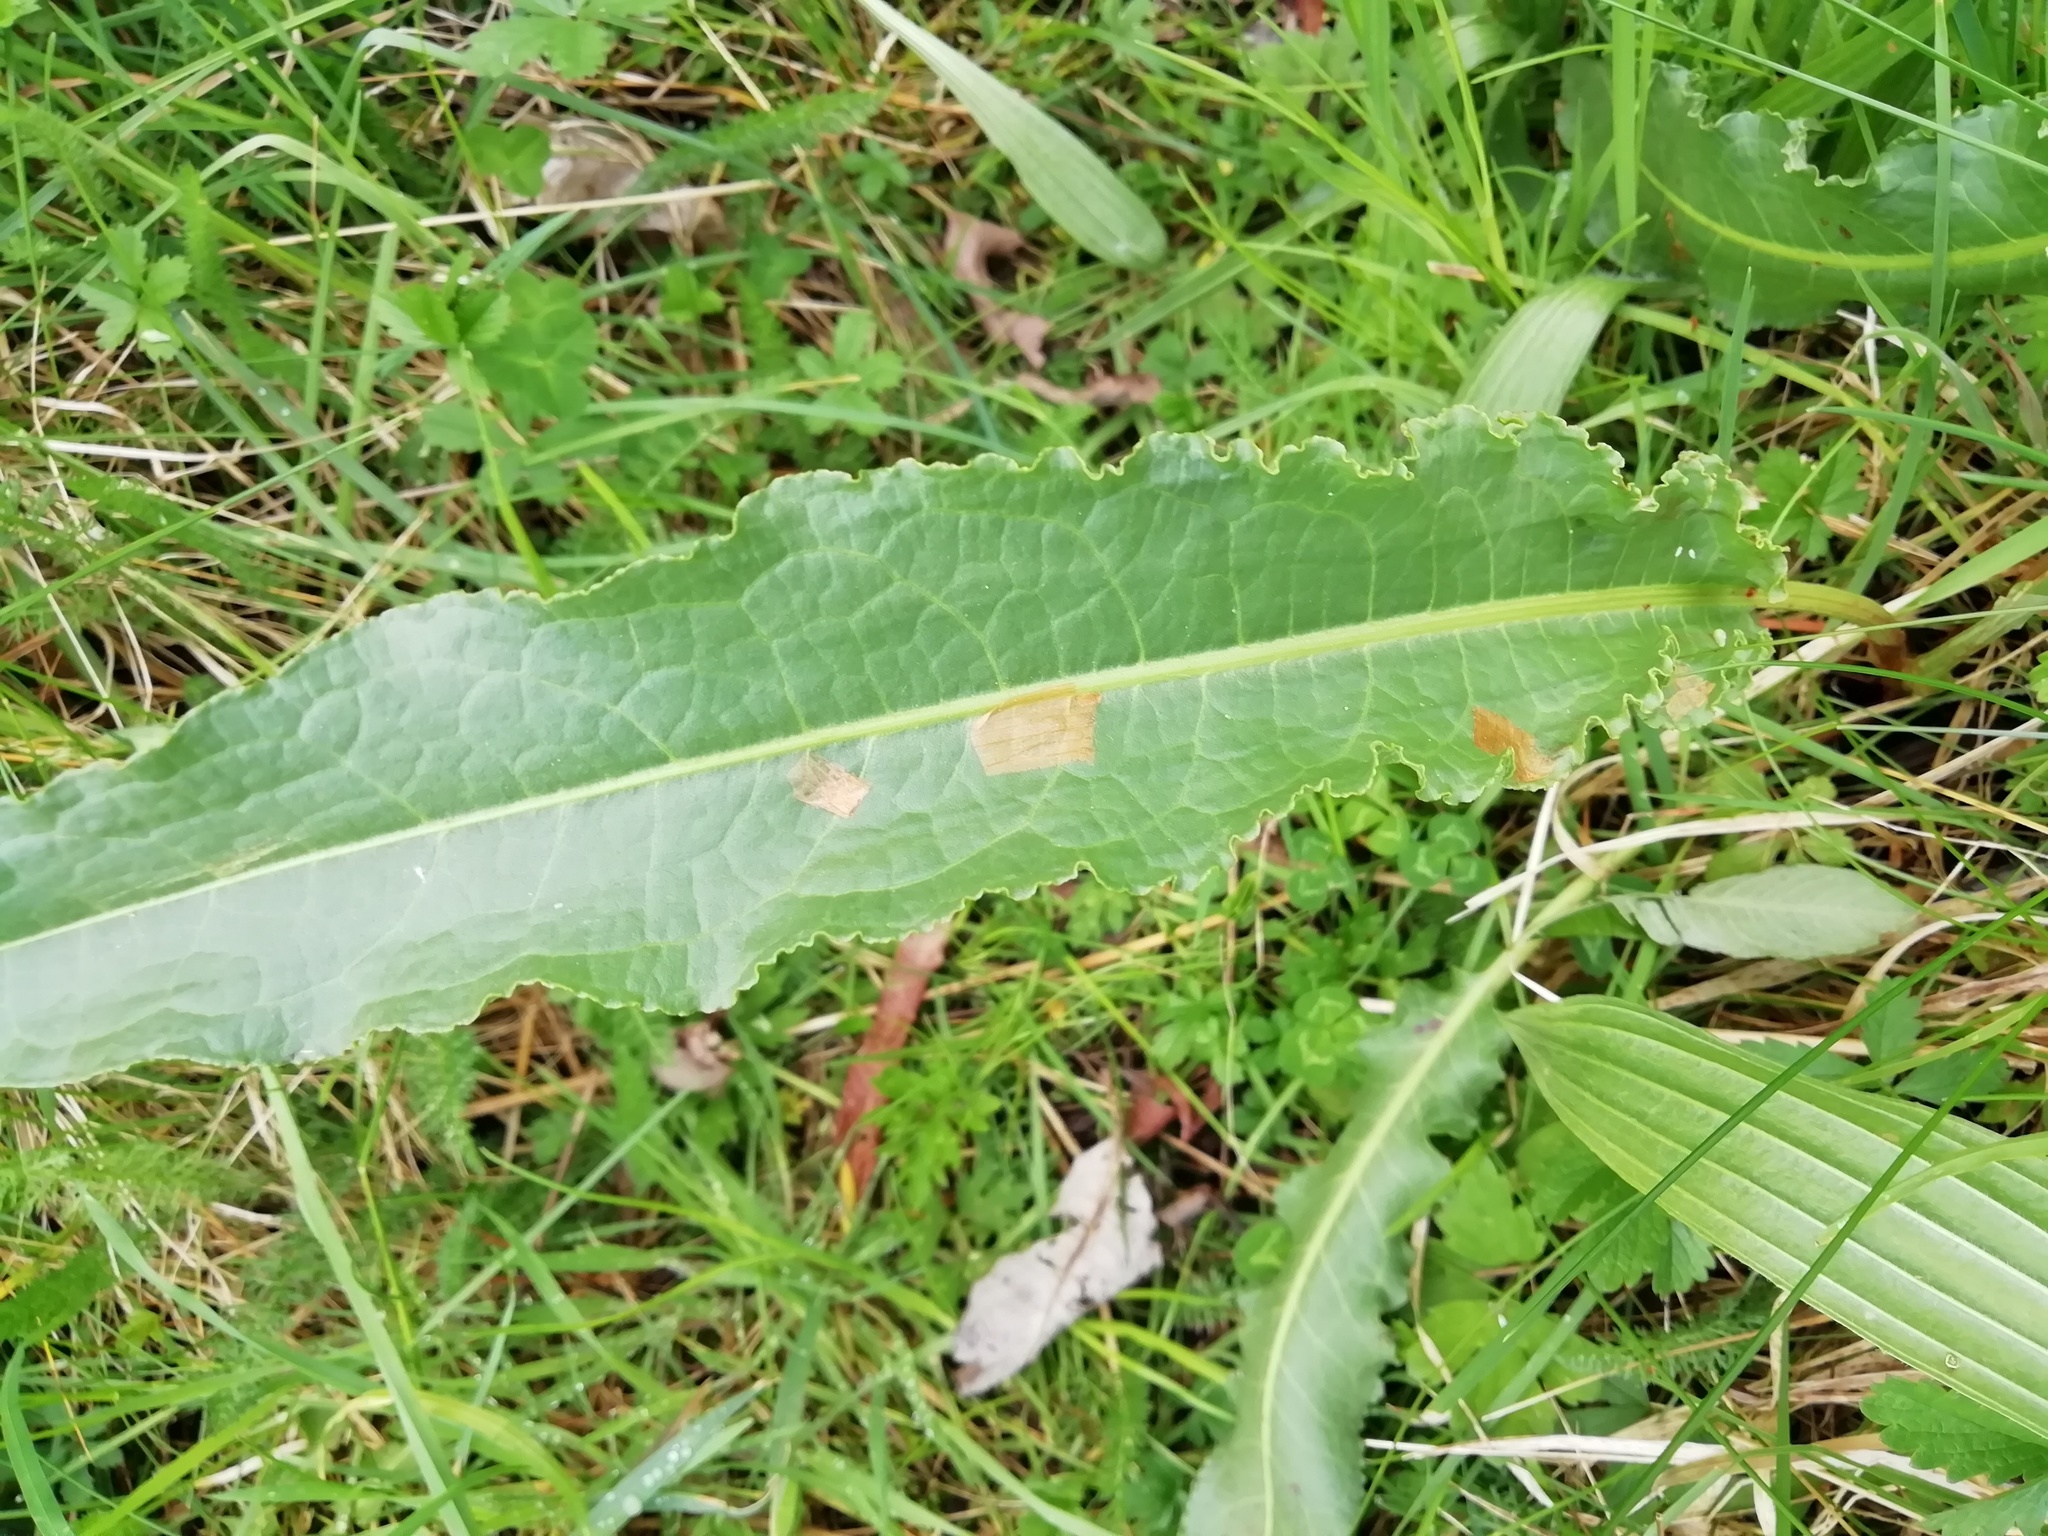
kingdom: Plantae
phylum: Tracheophyta
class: Magnoliopsida
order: Caryophyllales
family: Polygonaceae
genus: Rumex
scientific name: Rumex crispus
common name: Curled dock
